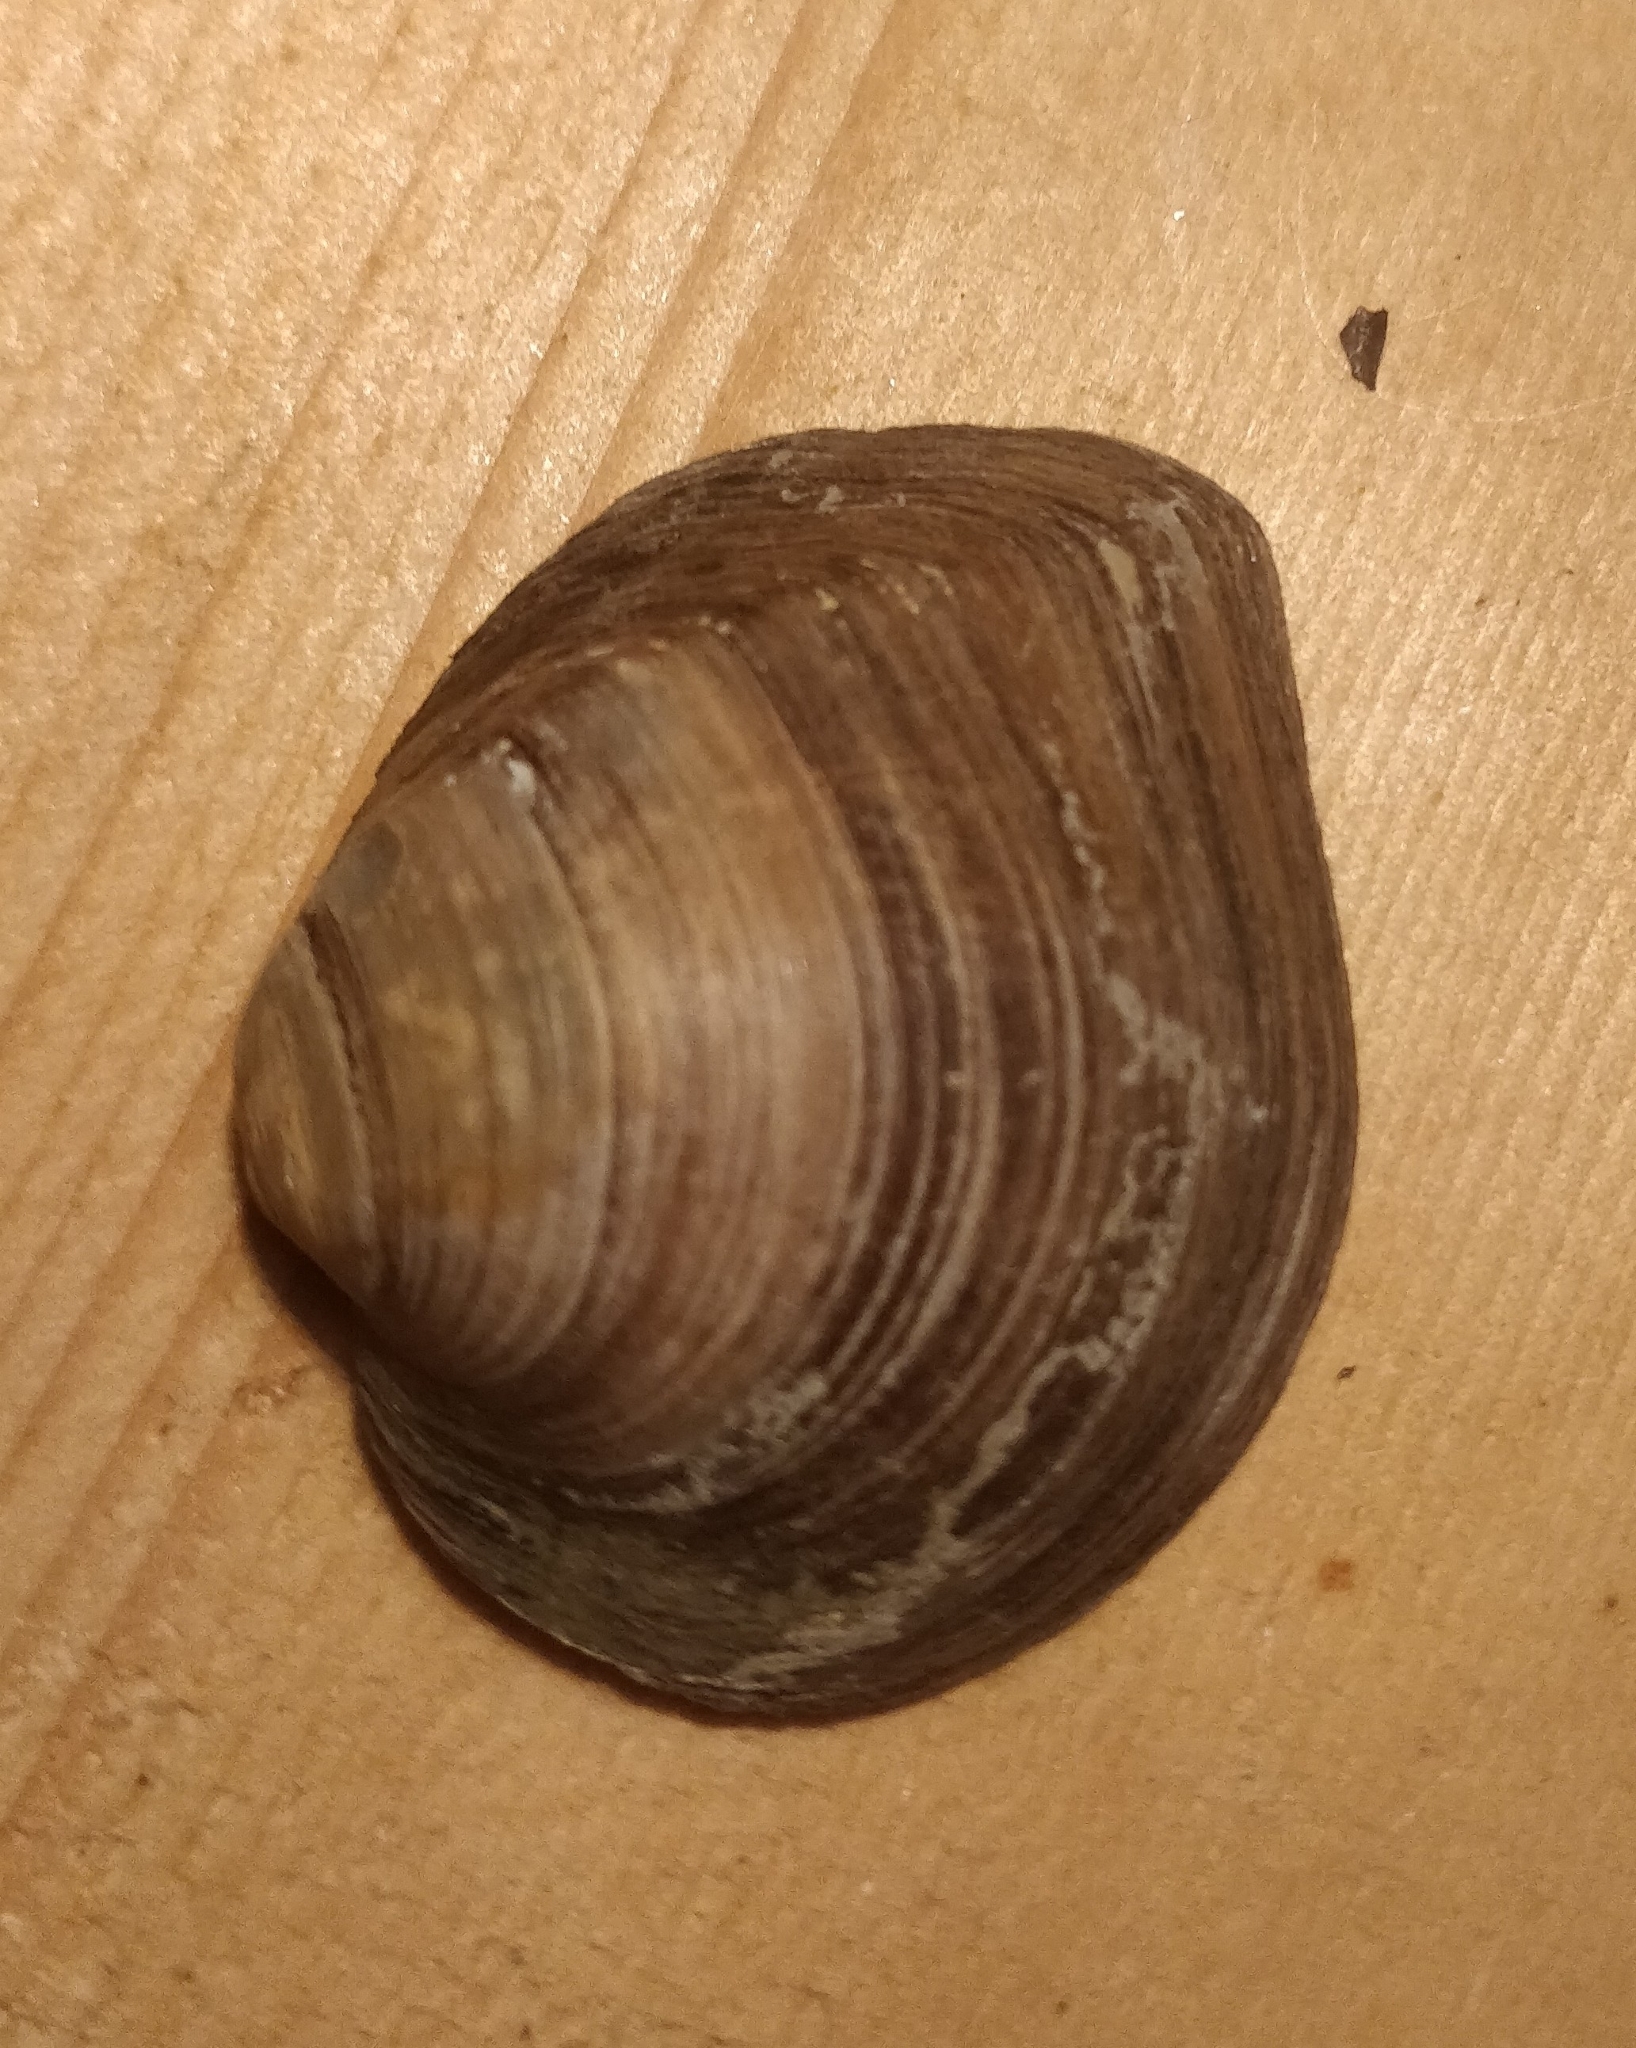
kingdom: Animalia
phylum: Mollusca
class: Bivalvia
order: Unionida
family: Unionidae
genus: Fusconaia
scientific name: Fusconaia flava
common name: Wabash pigtoe
